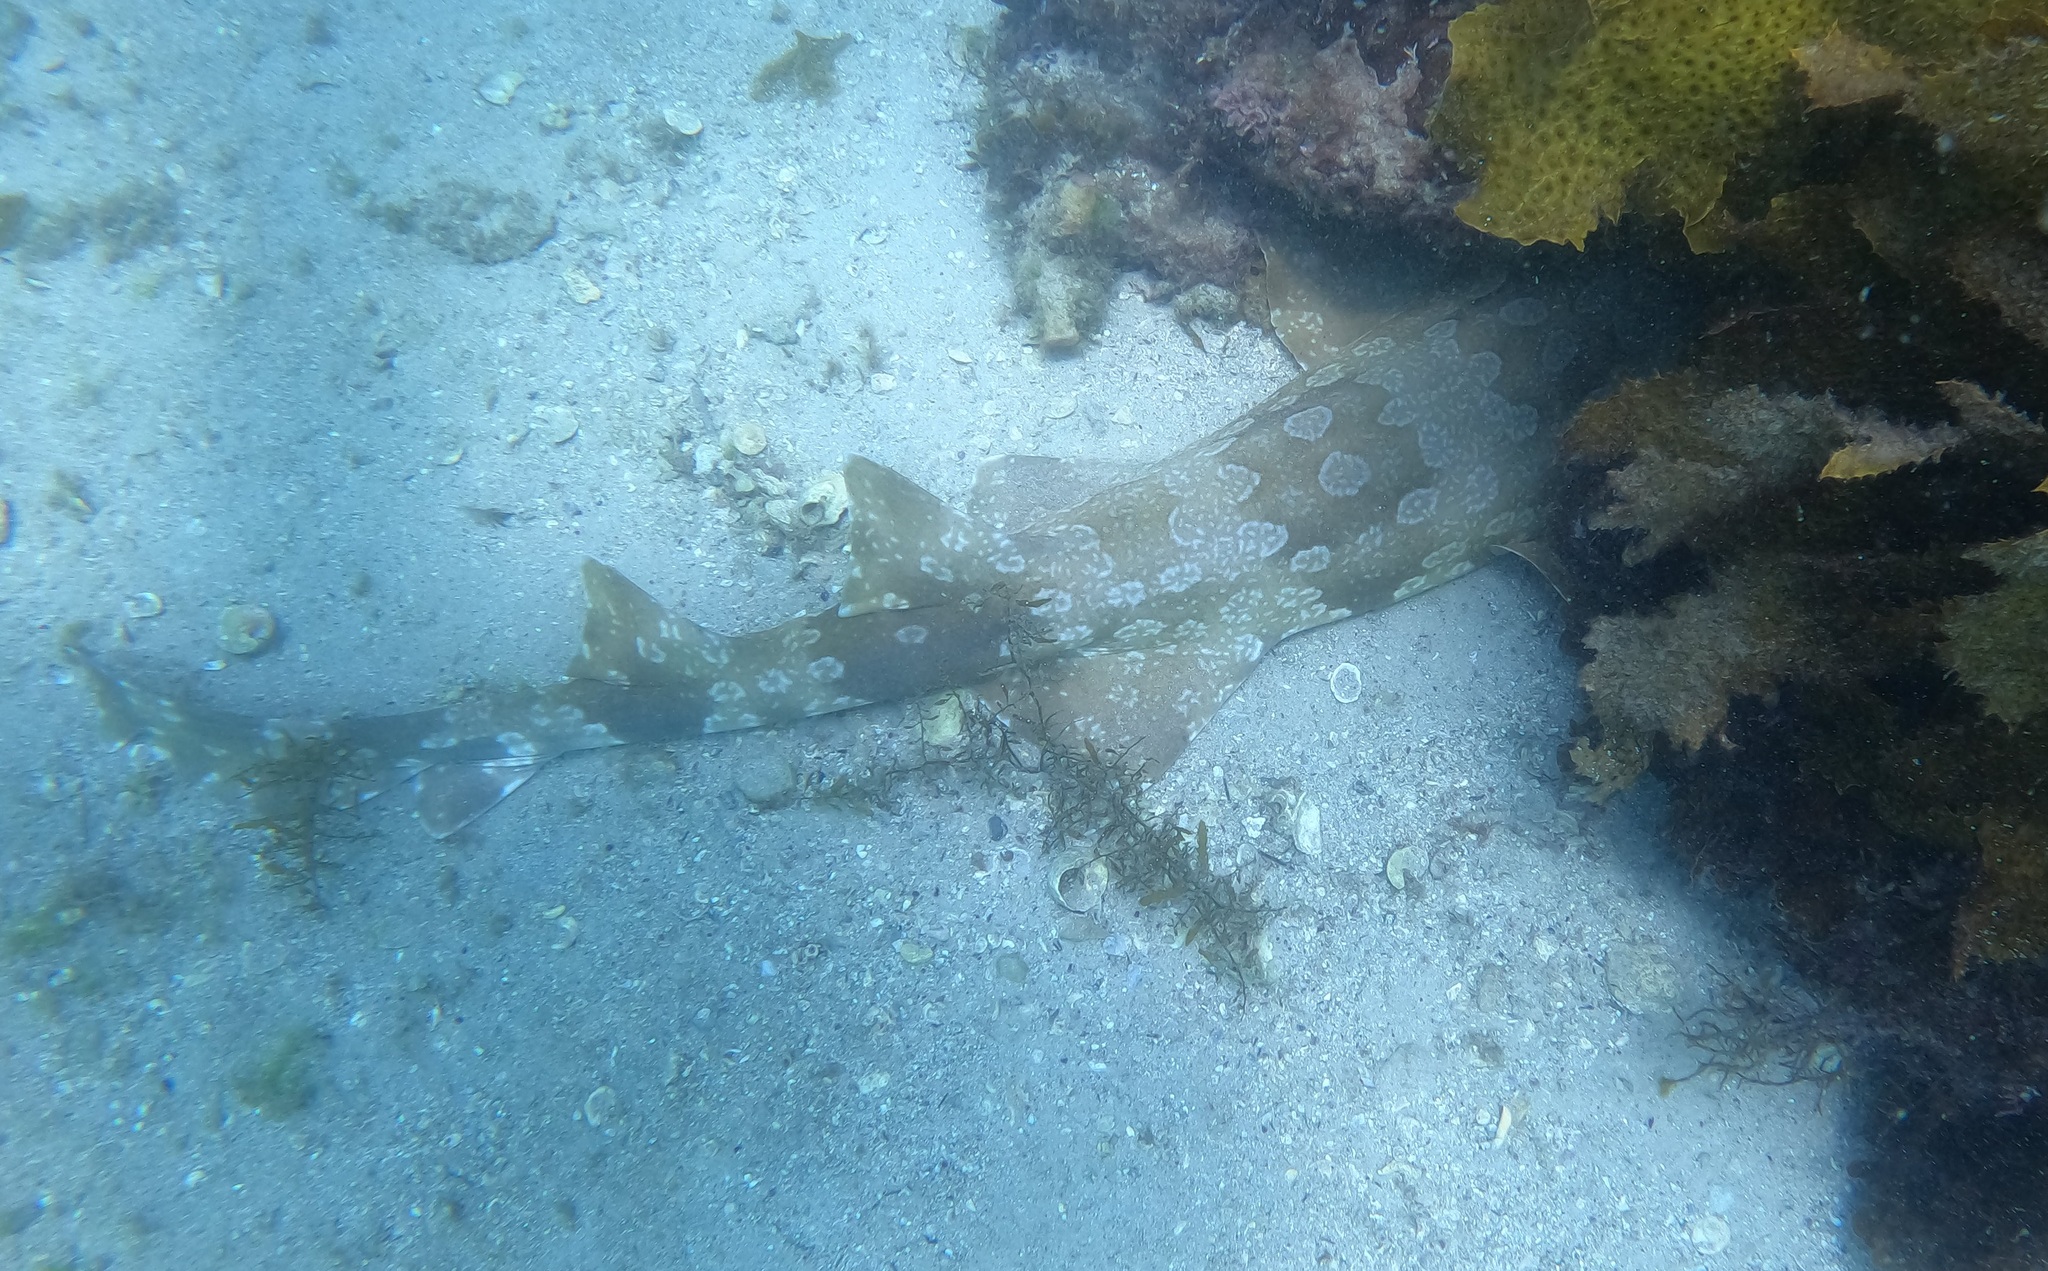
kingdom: Animalia
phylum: Chordata
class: Elasmobranchii
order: Orectolobiformes
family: Orectolobidae
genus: Orectolobus
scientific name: Orectolobus maculatus
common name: Spotted wobbegong
